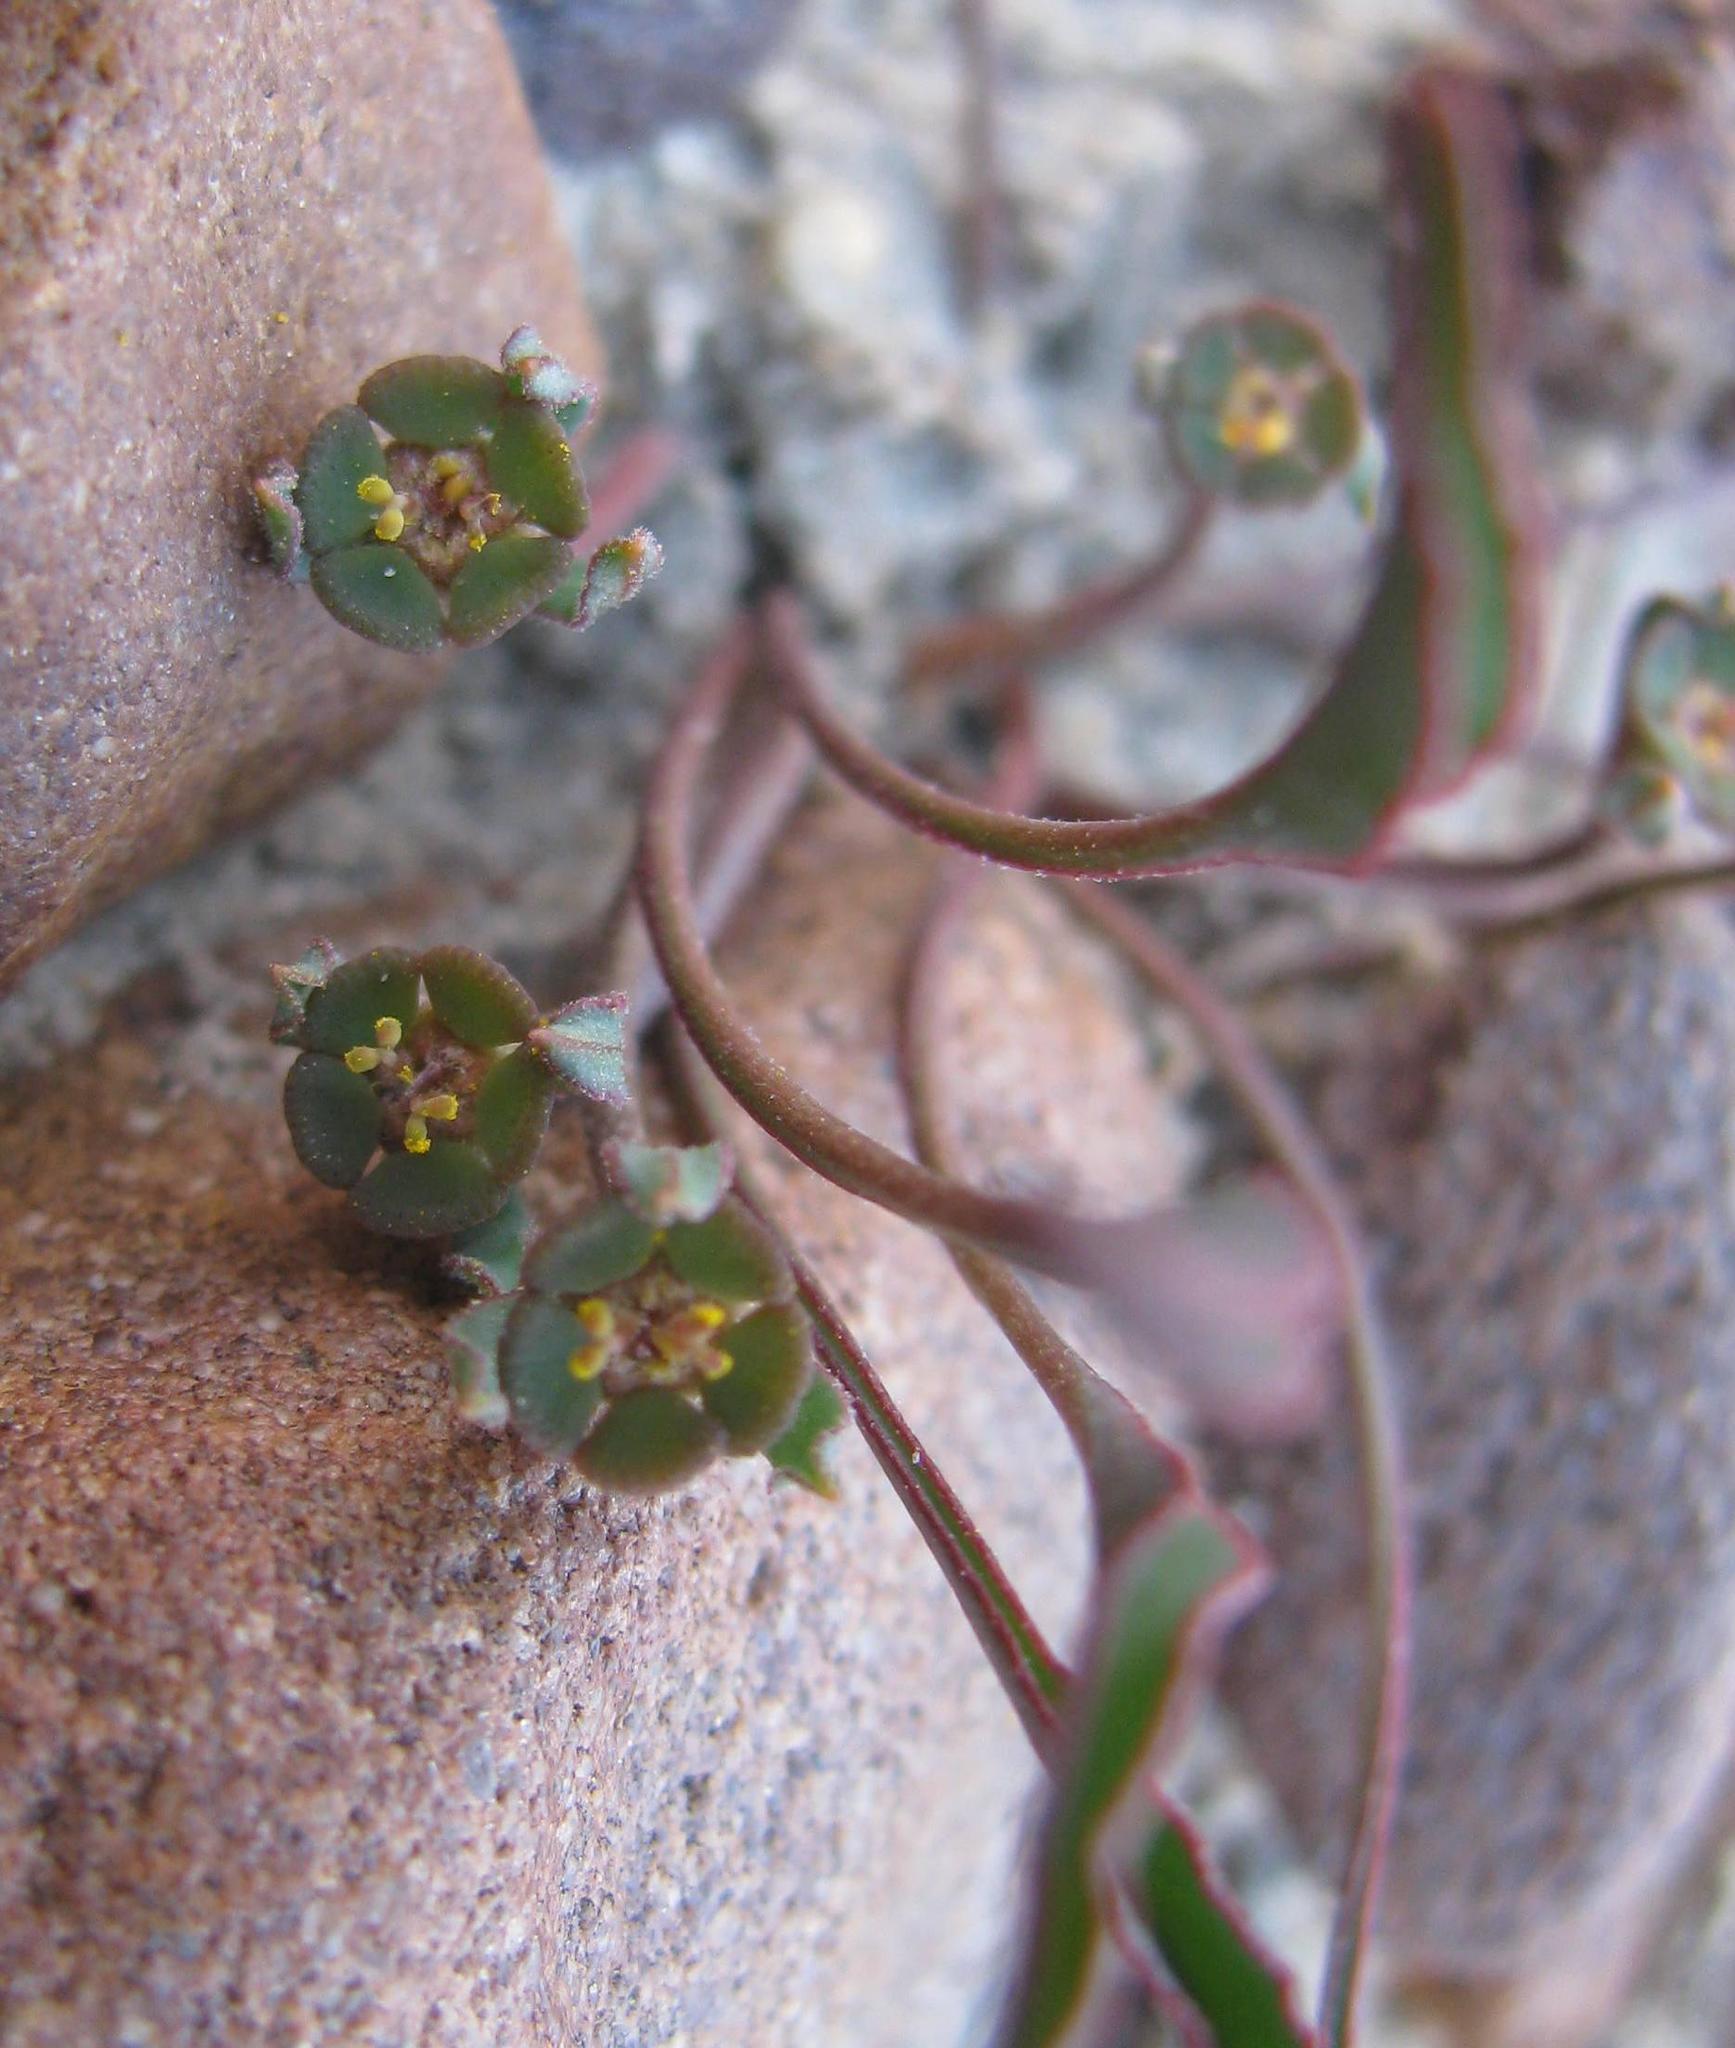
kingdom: Plantae
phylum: Tracheophyta
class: Magnoliopsida
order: Malpighiales
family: Euphorbiaceae
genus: Euphorbia
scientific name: Euphorbia silenifolia
